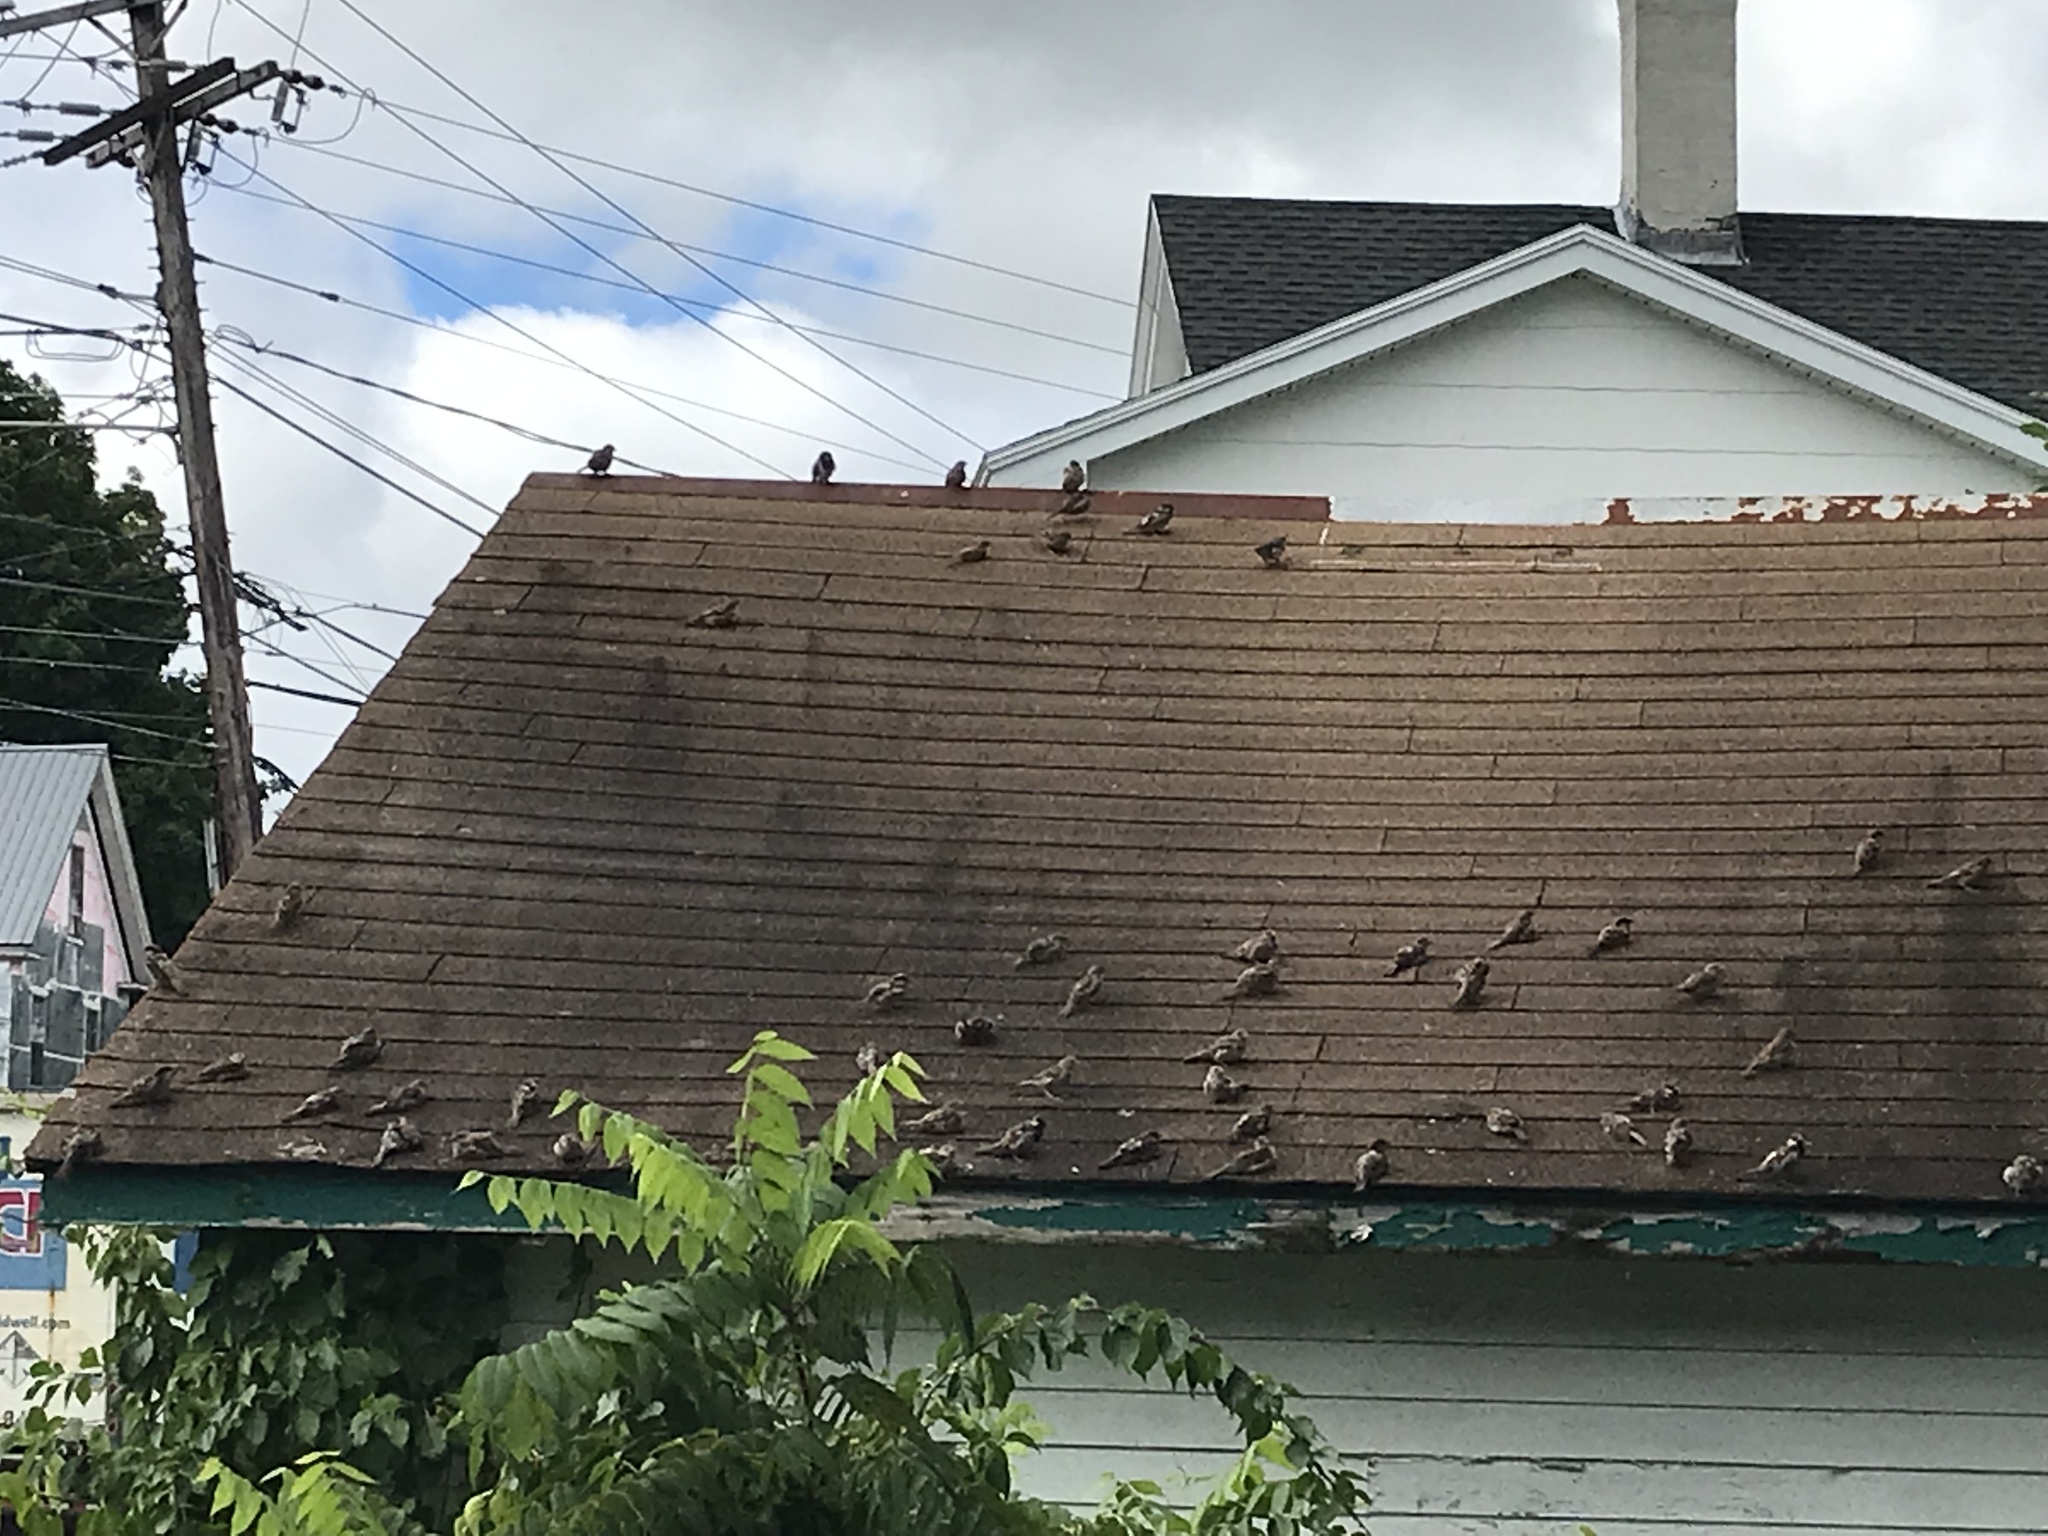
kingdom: Animalia
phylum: Chordata
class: Aves
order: Passeriformes
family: Passeridae
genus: Passer
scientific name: Passer domesticus
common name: House sparrow
